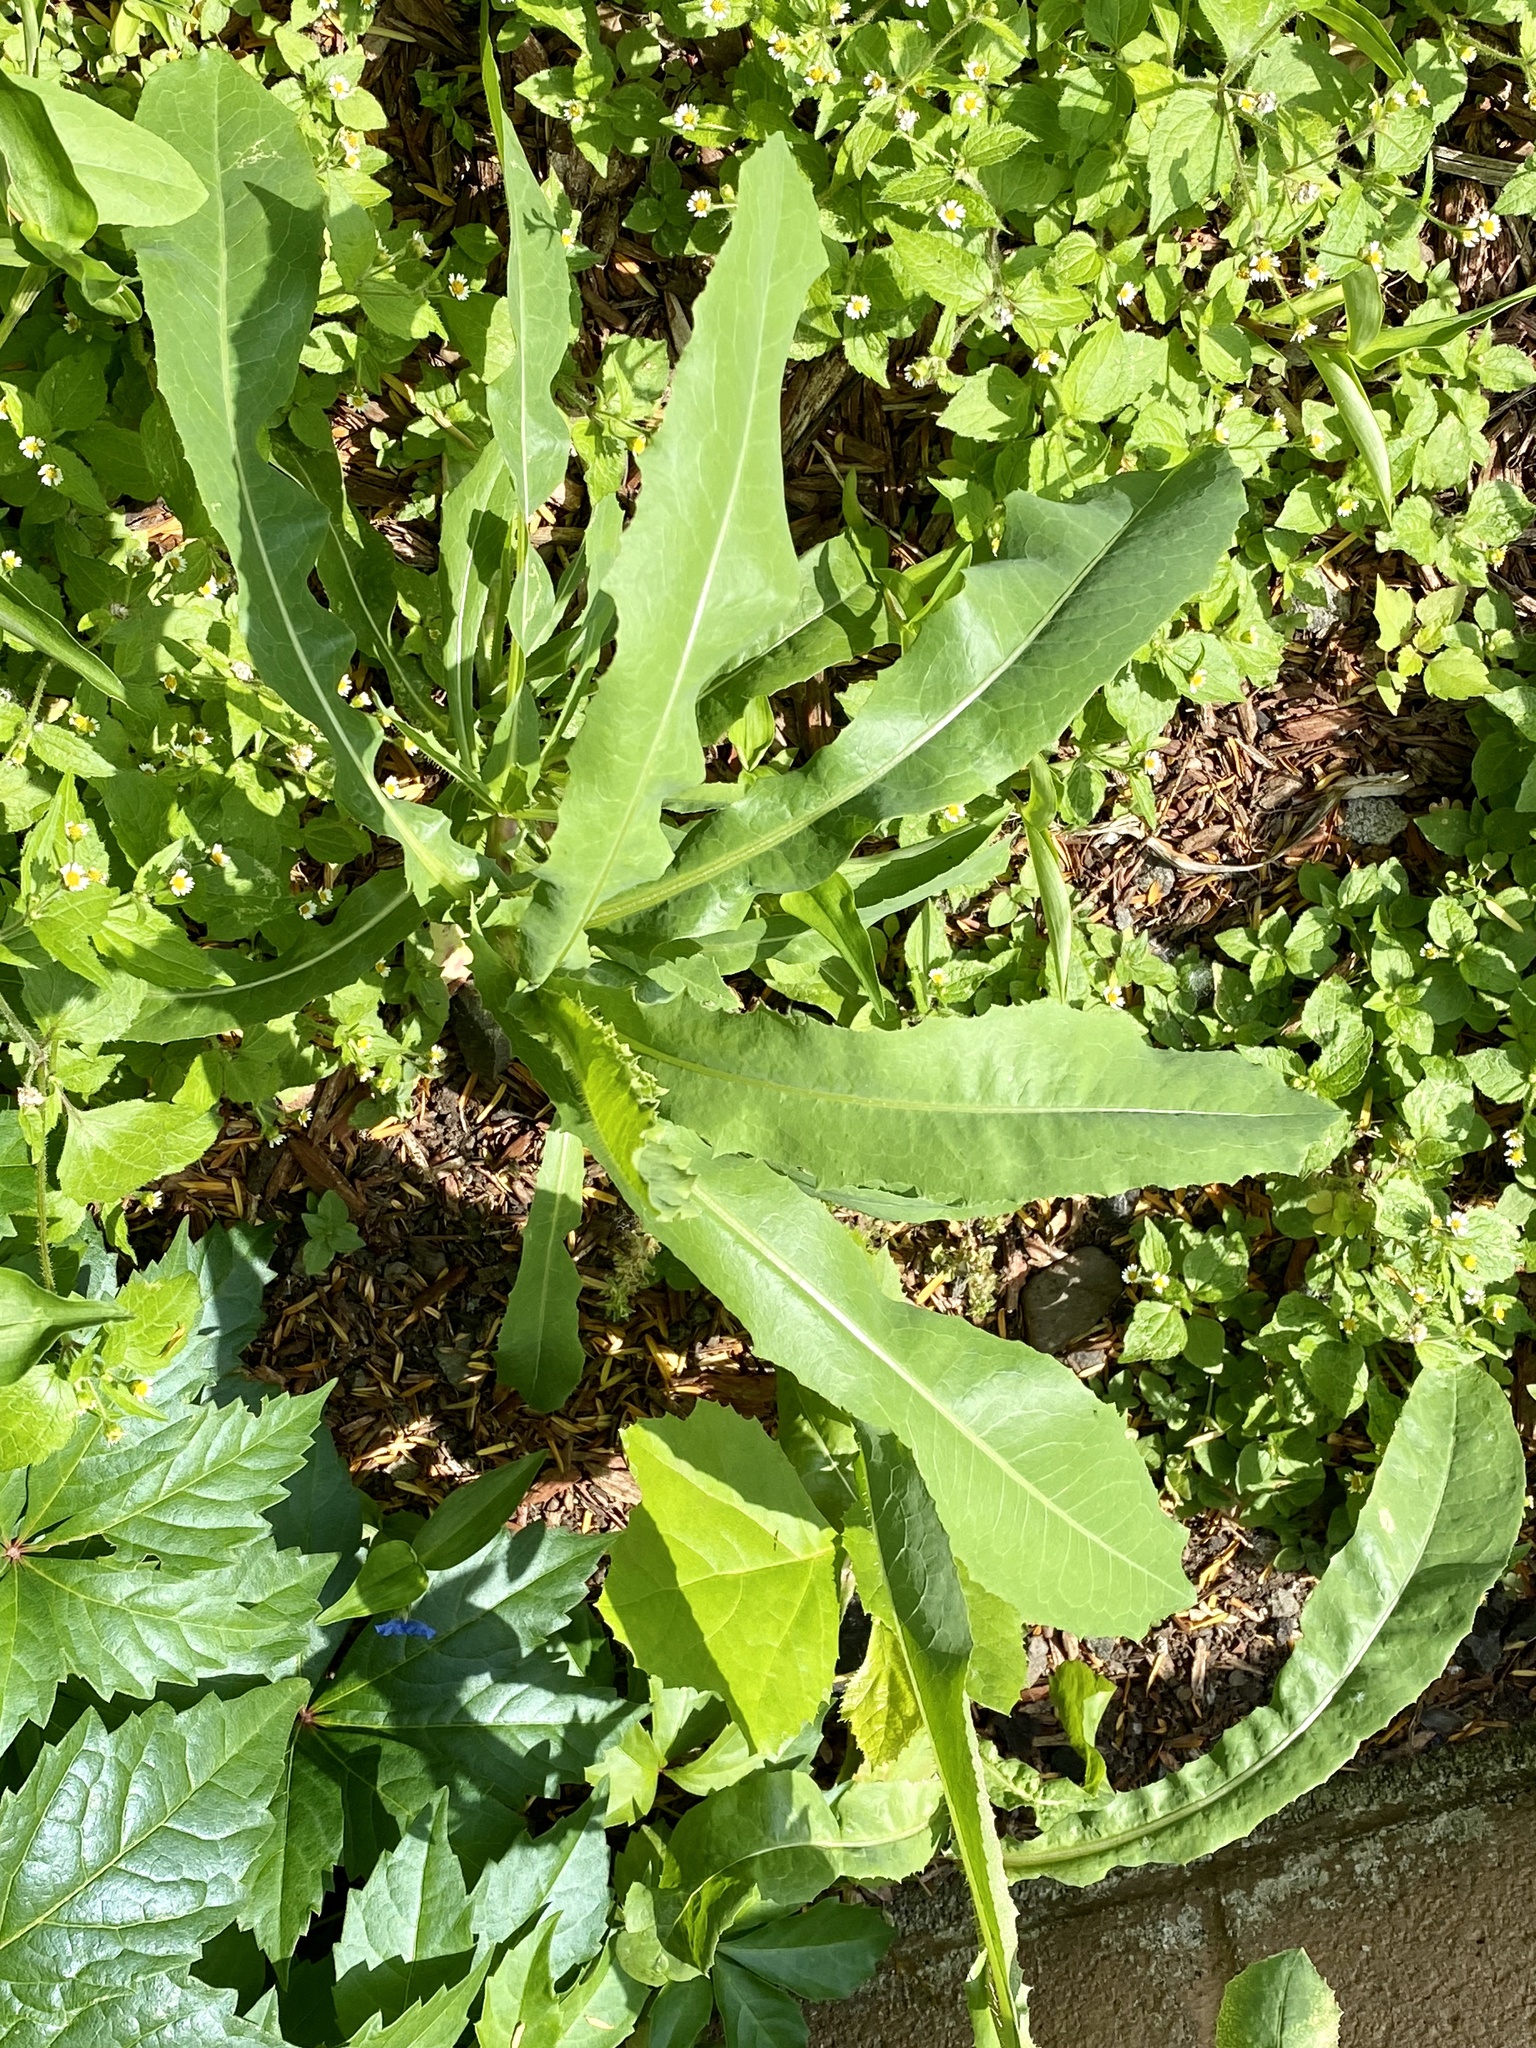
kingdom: Plantae
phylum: Tracheophyta
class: Magnoliopsida
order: Asterales
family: Asteraceae
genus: Lactuca
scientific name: Lactuca serriola
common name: Prickly lettuce
